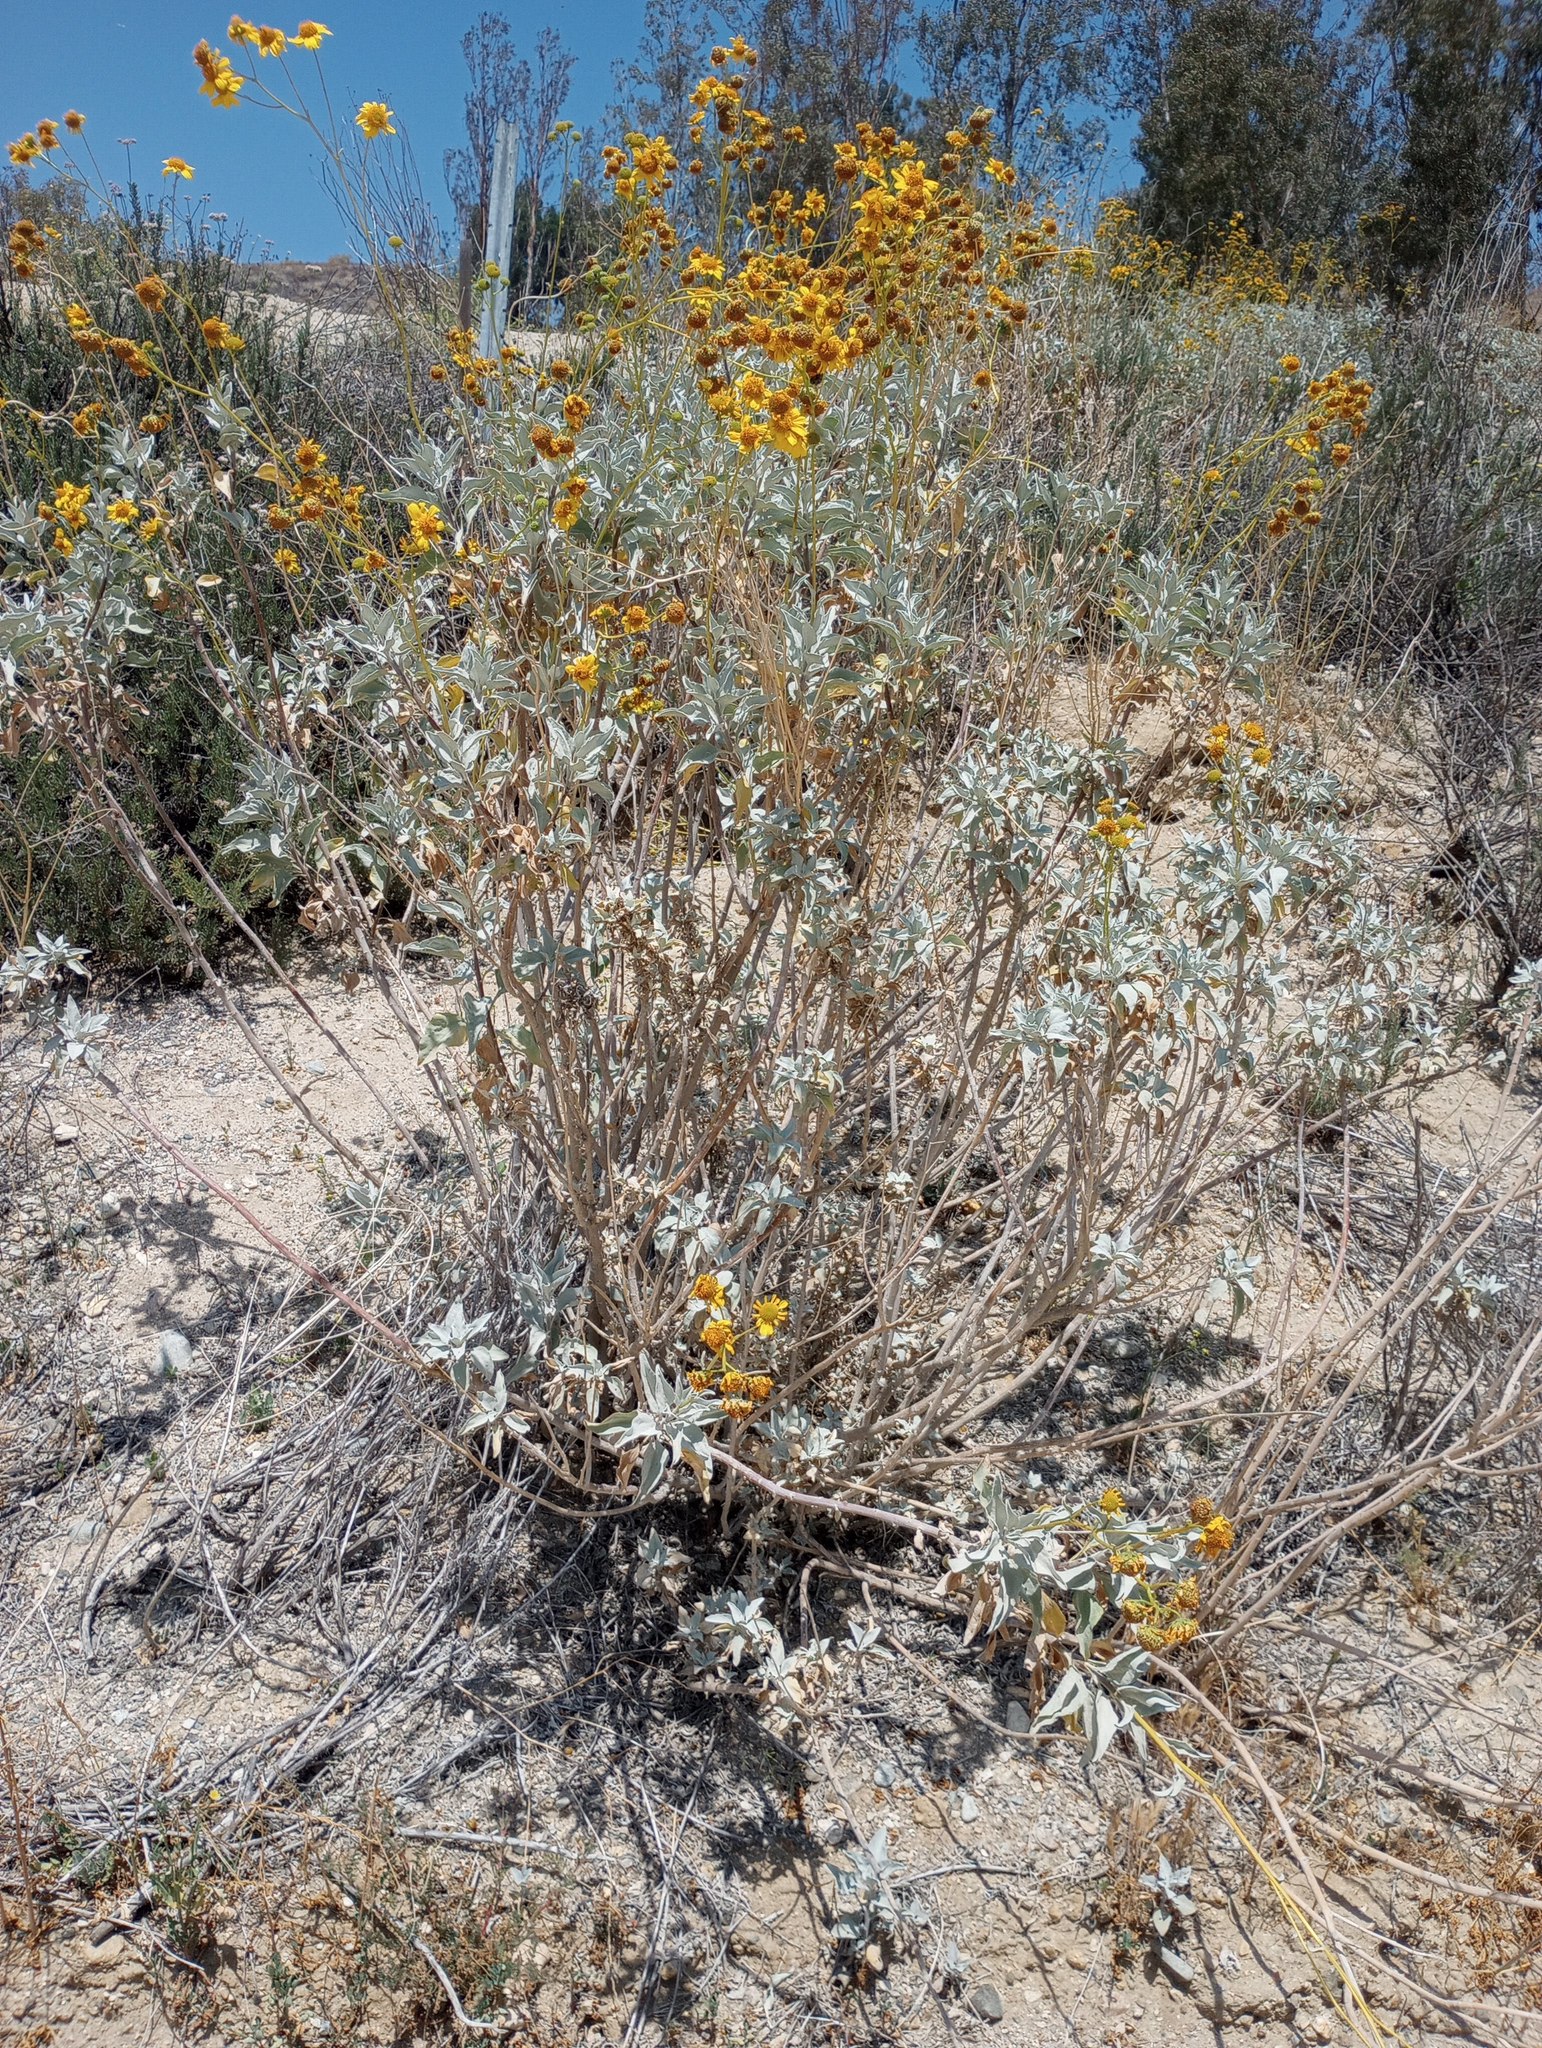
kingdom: Plantae
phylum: Tracheophyta
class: Magnoliopsida
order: Asterales
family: Asteraceae
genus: Encelia
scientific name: Encelia farinosa
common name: Brittlebush
